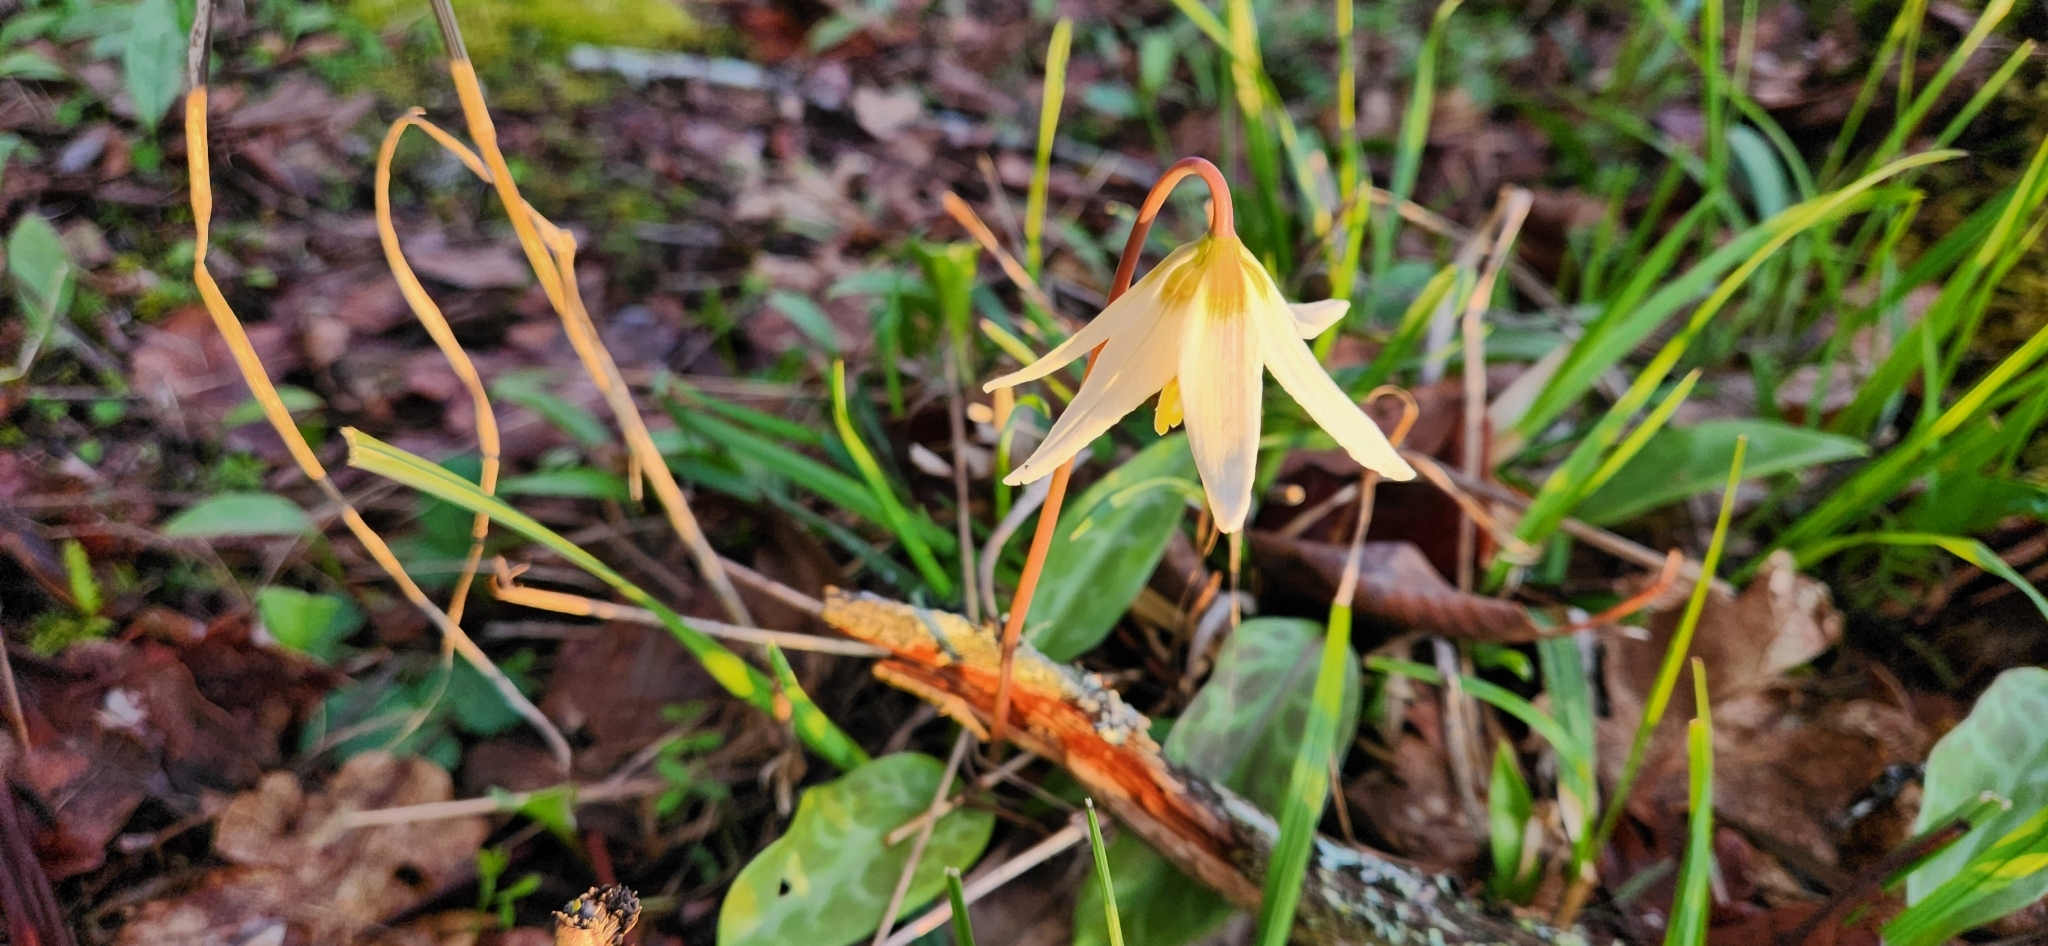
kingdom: Plantae
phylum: Tracheophyta
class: Liliopsida
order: Liliales
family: Liliaceae
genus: Erythronium
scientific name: Erythronium oregonum
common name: Giant adder's-tongue
